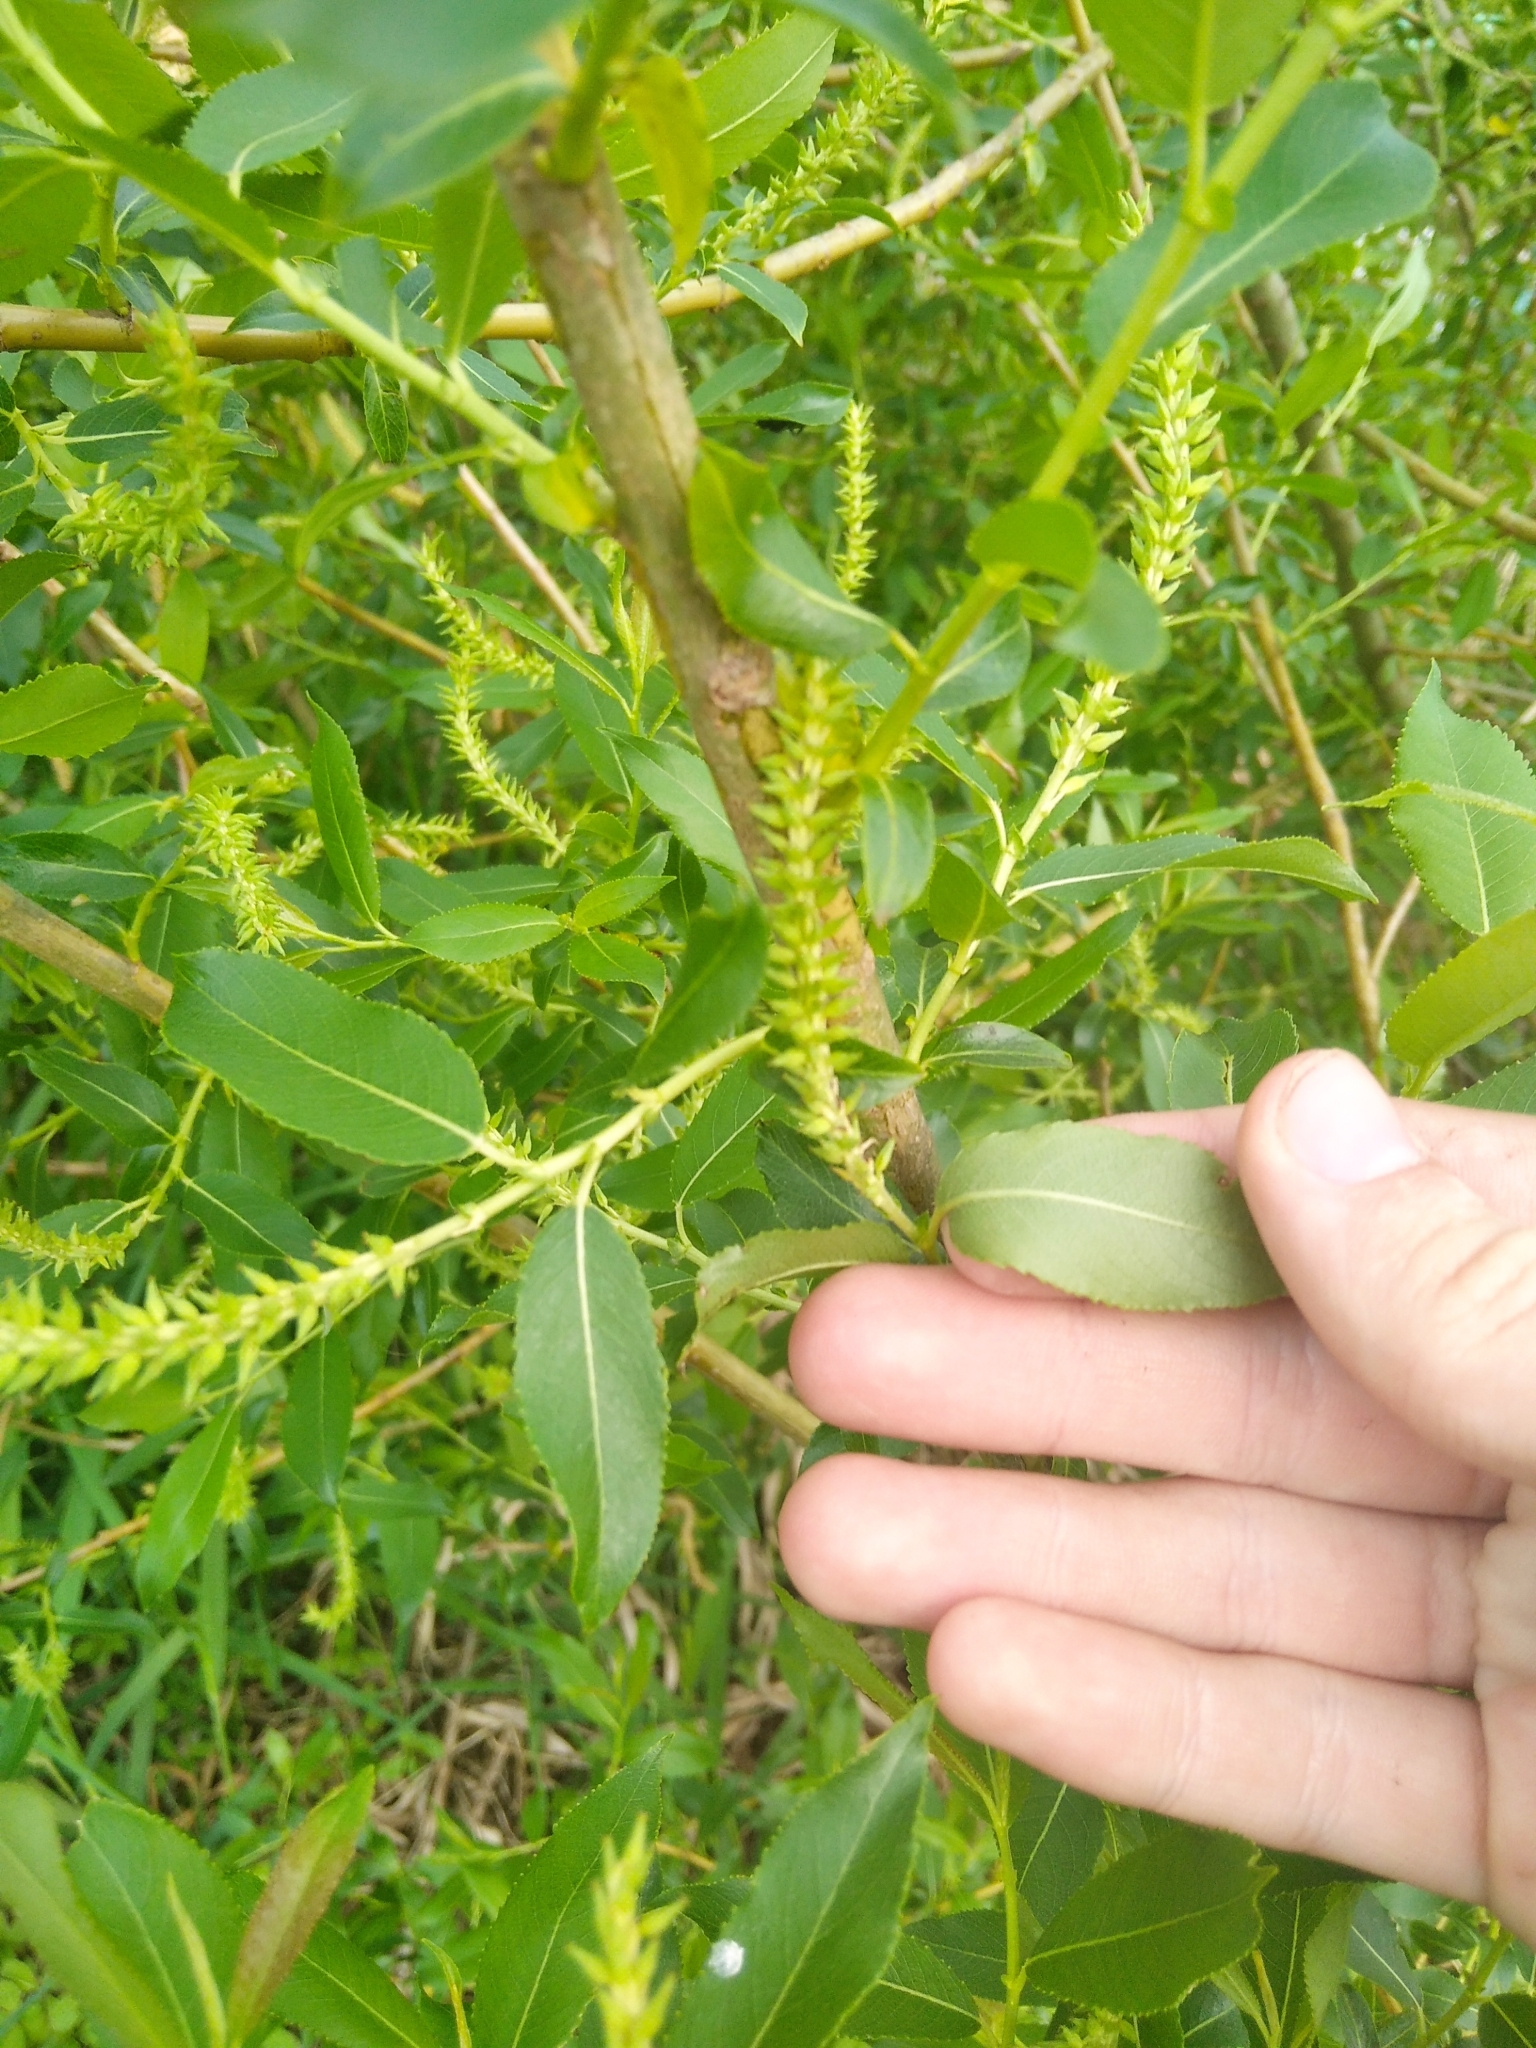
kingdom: Plantae
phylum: Tracheophyta
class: Magnoliopsida
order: Malpighiales
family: Salicaceae
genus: Salix
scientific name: Salix triandra
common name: Almond willow
